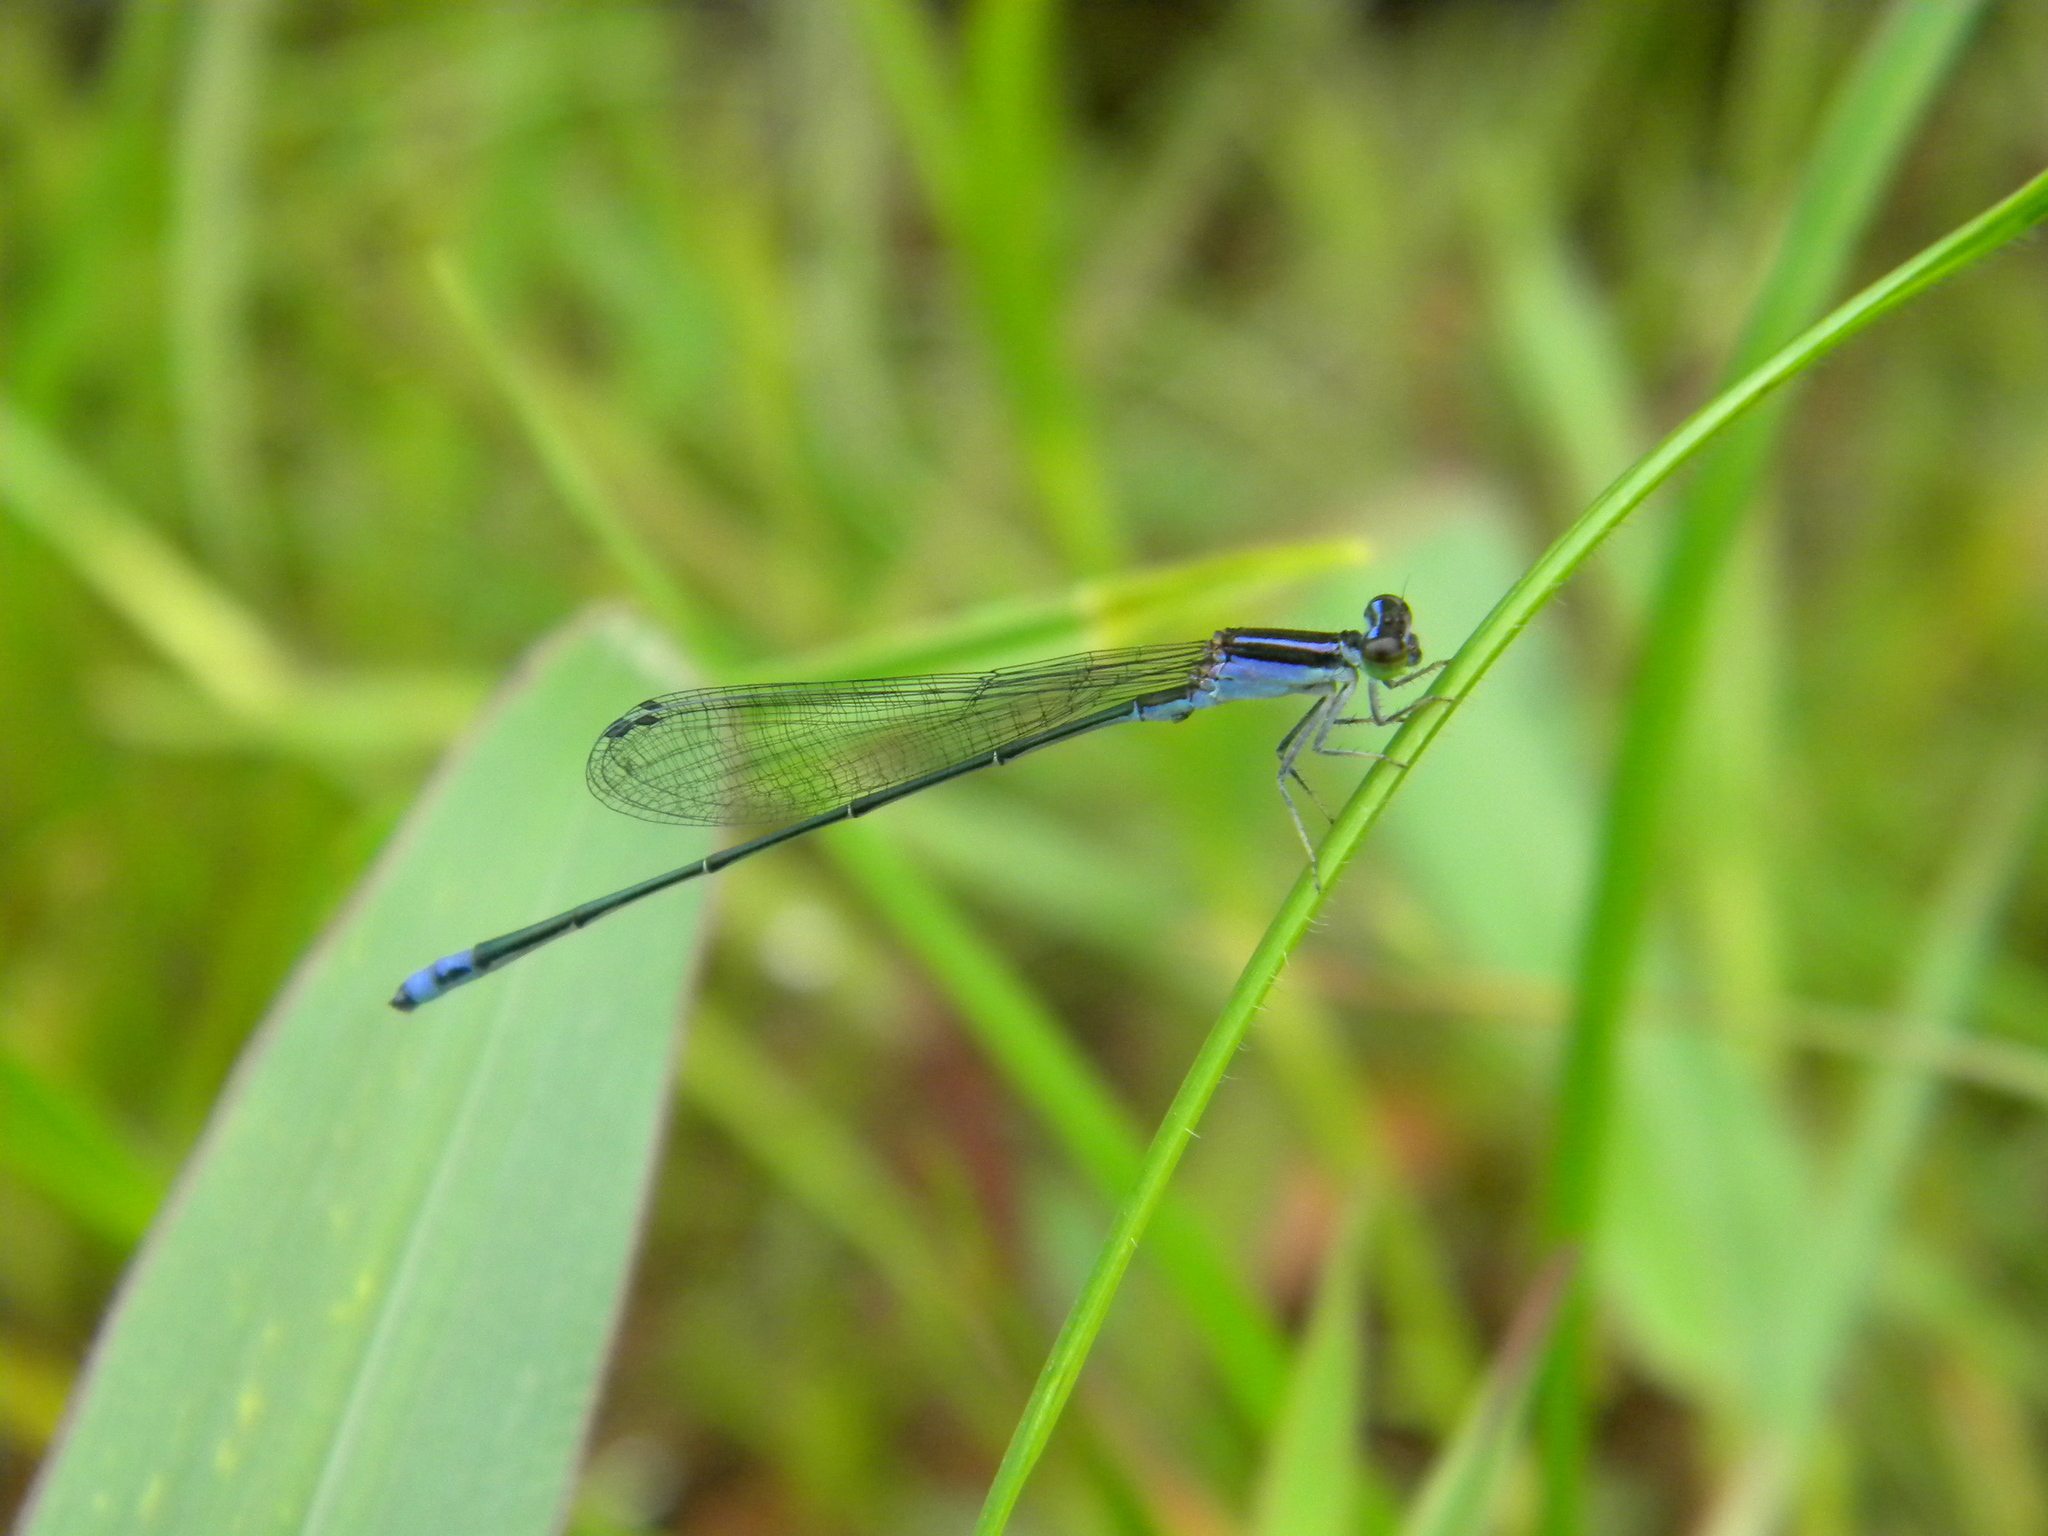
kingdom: Animalia
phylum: Arthropoda
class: Insecta
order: Odonata
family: Coenagrionidae
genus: Aciagrion
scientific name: Aciagrion approximans
